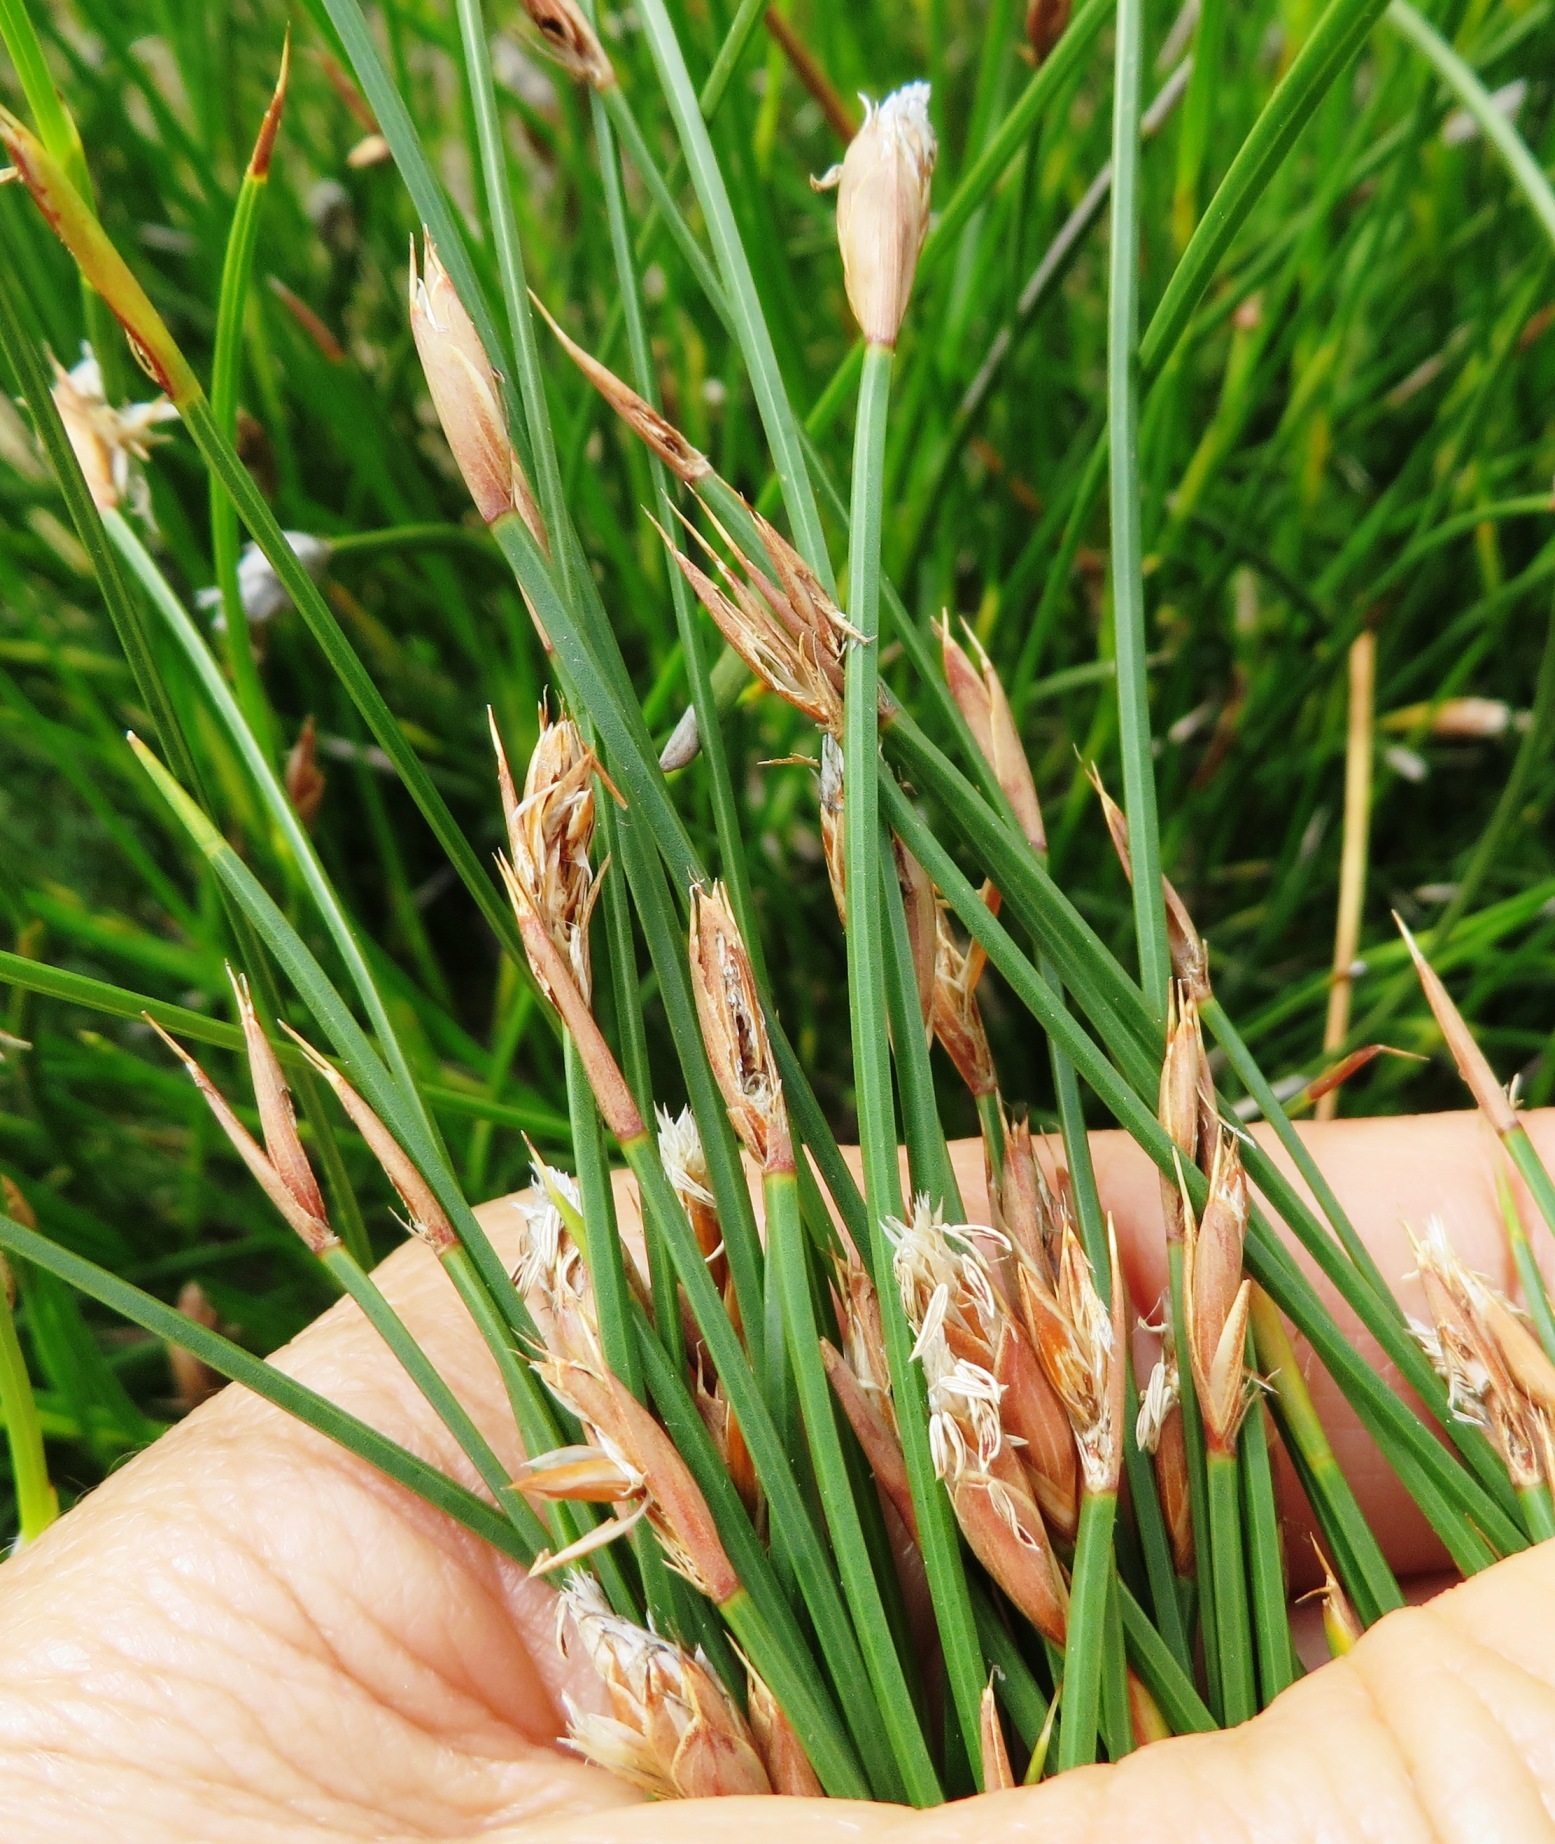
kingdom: Plantae
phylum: Tracheophyta
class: Liliopsida
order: Poales
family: Restionaceae
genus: Hypodiscus
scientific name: Hypodiscus willdenowia
